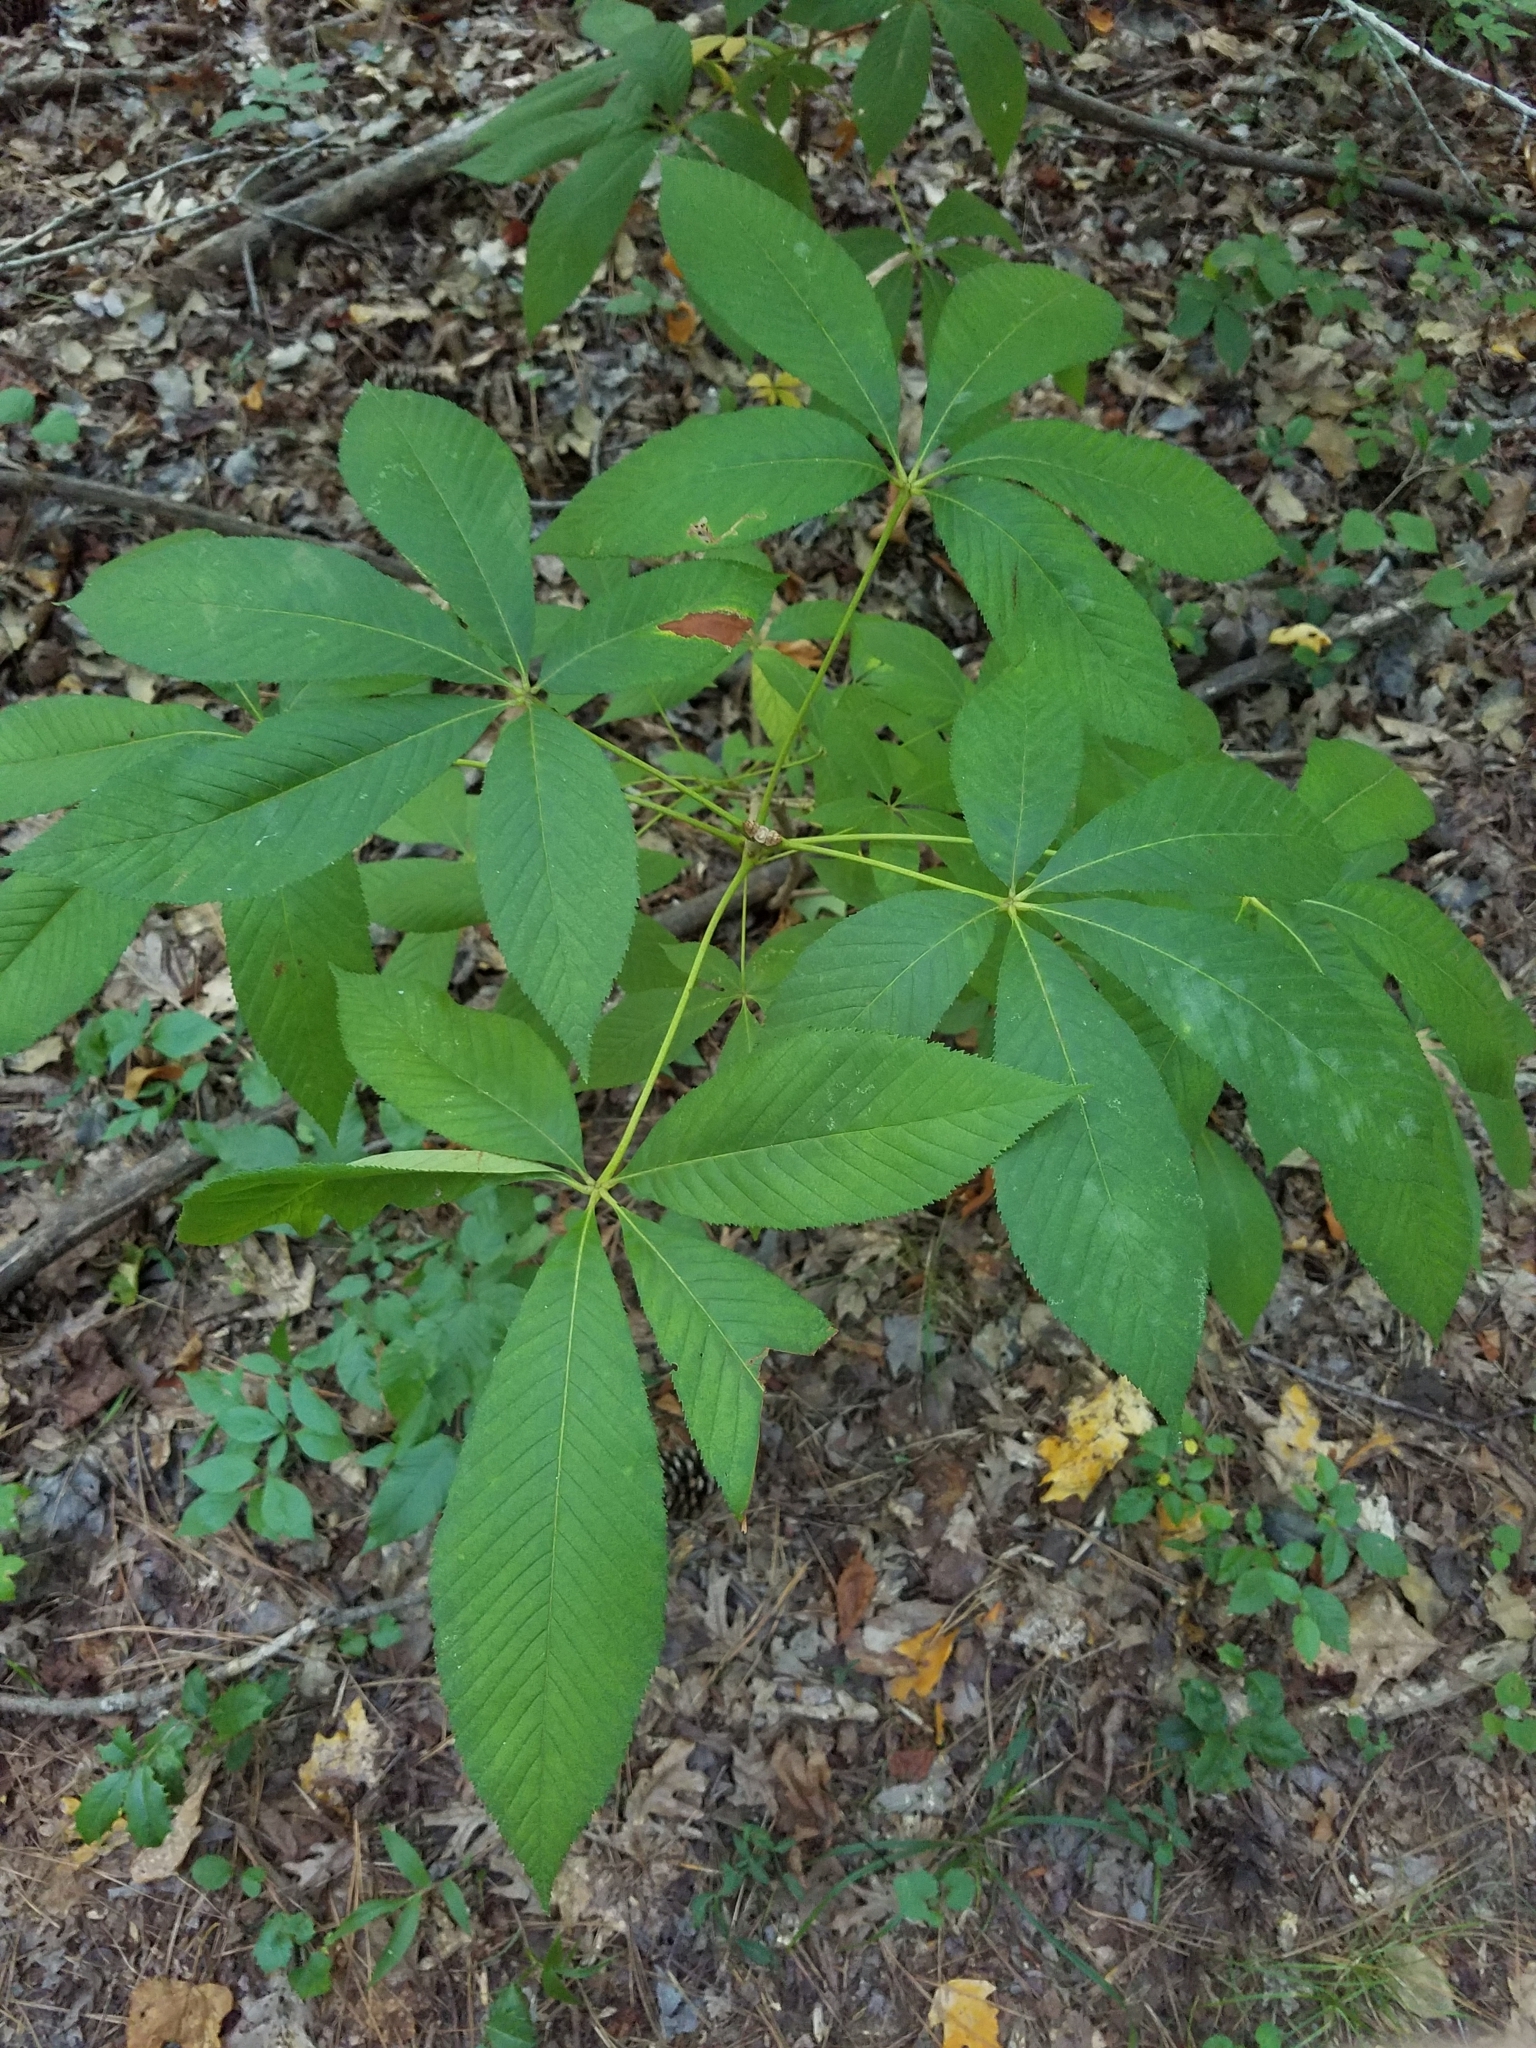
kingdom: Plantae
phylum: Tracheophyta
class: Magnoliopsida
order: Sapindales
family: Sapindaceae
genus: Aesculus
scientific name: Aesculus sylvatica
